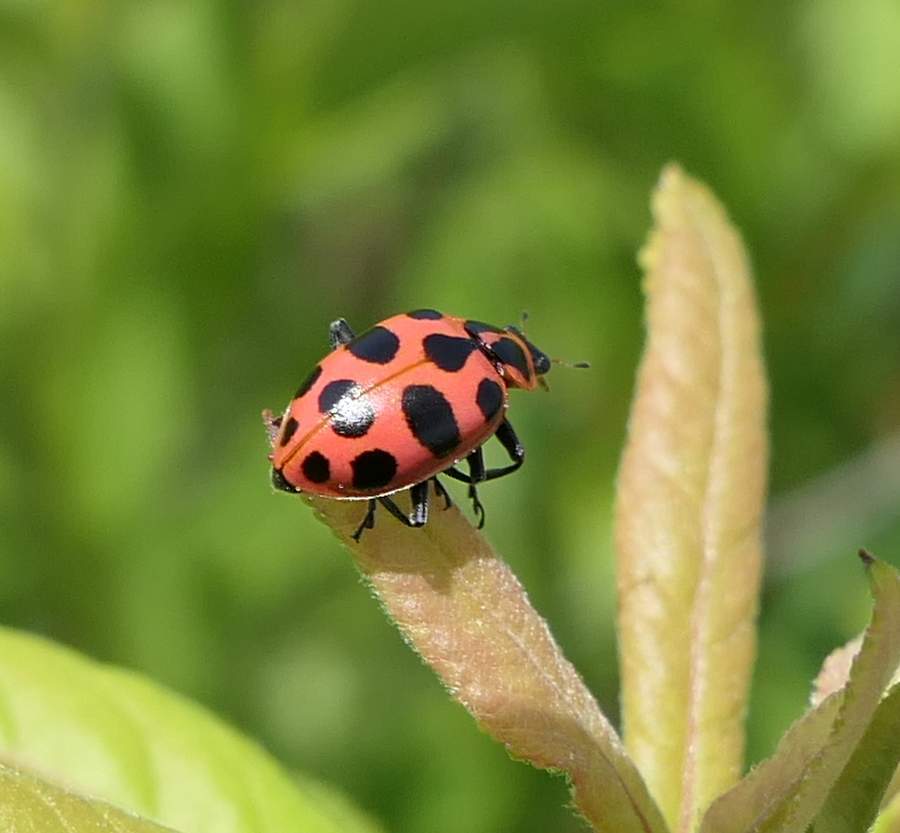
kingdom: Animalia
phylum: Arthropoda
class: Insecta
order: Coleoptera
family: Coccinellidae
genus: Coleomegilla
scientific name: Coleomegilla maculata
